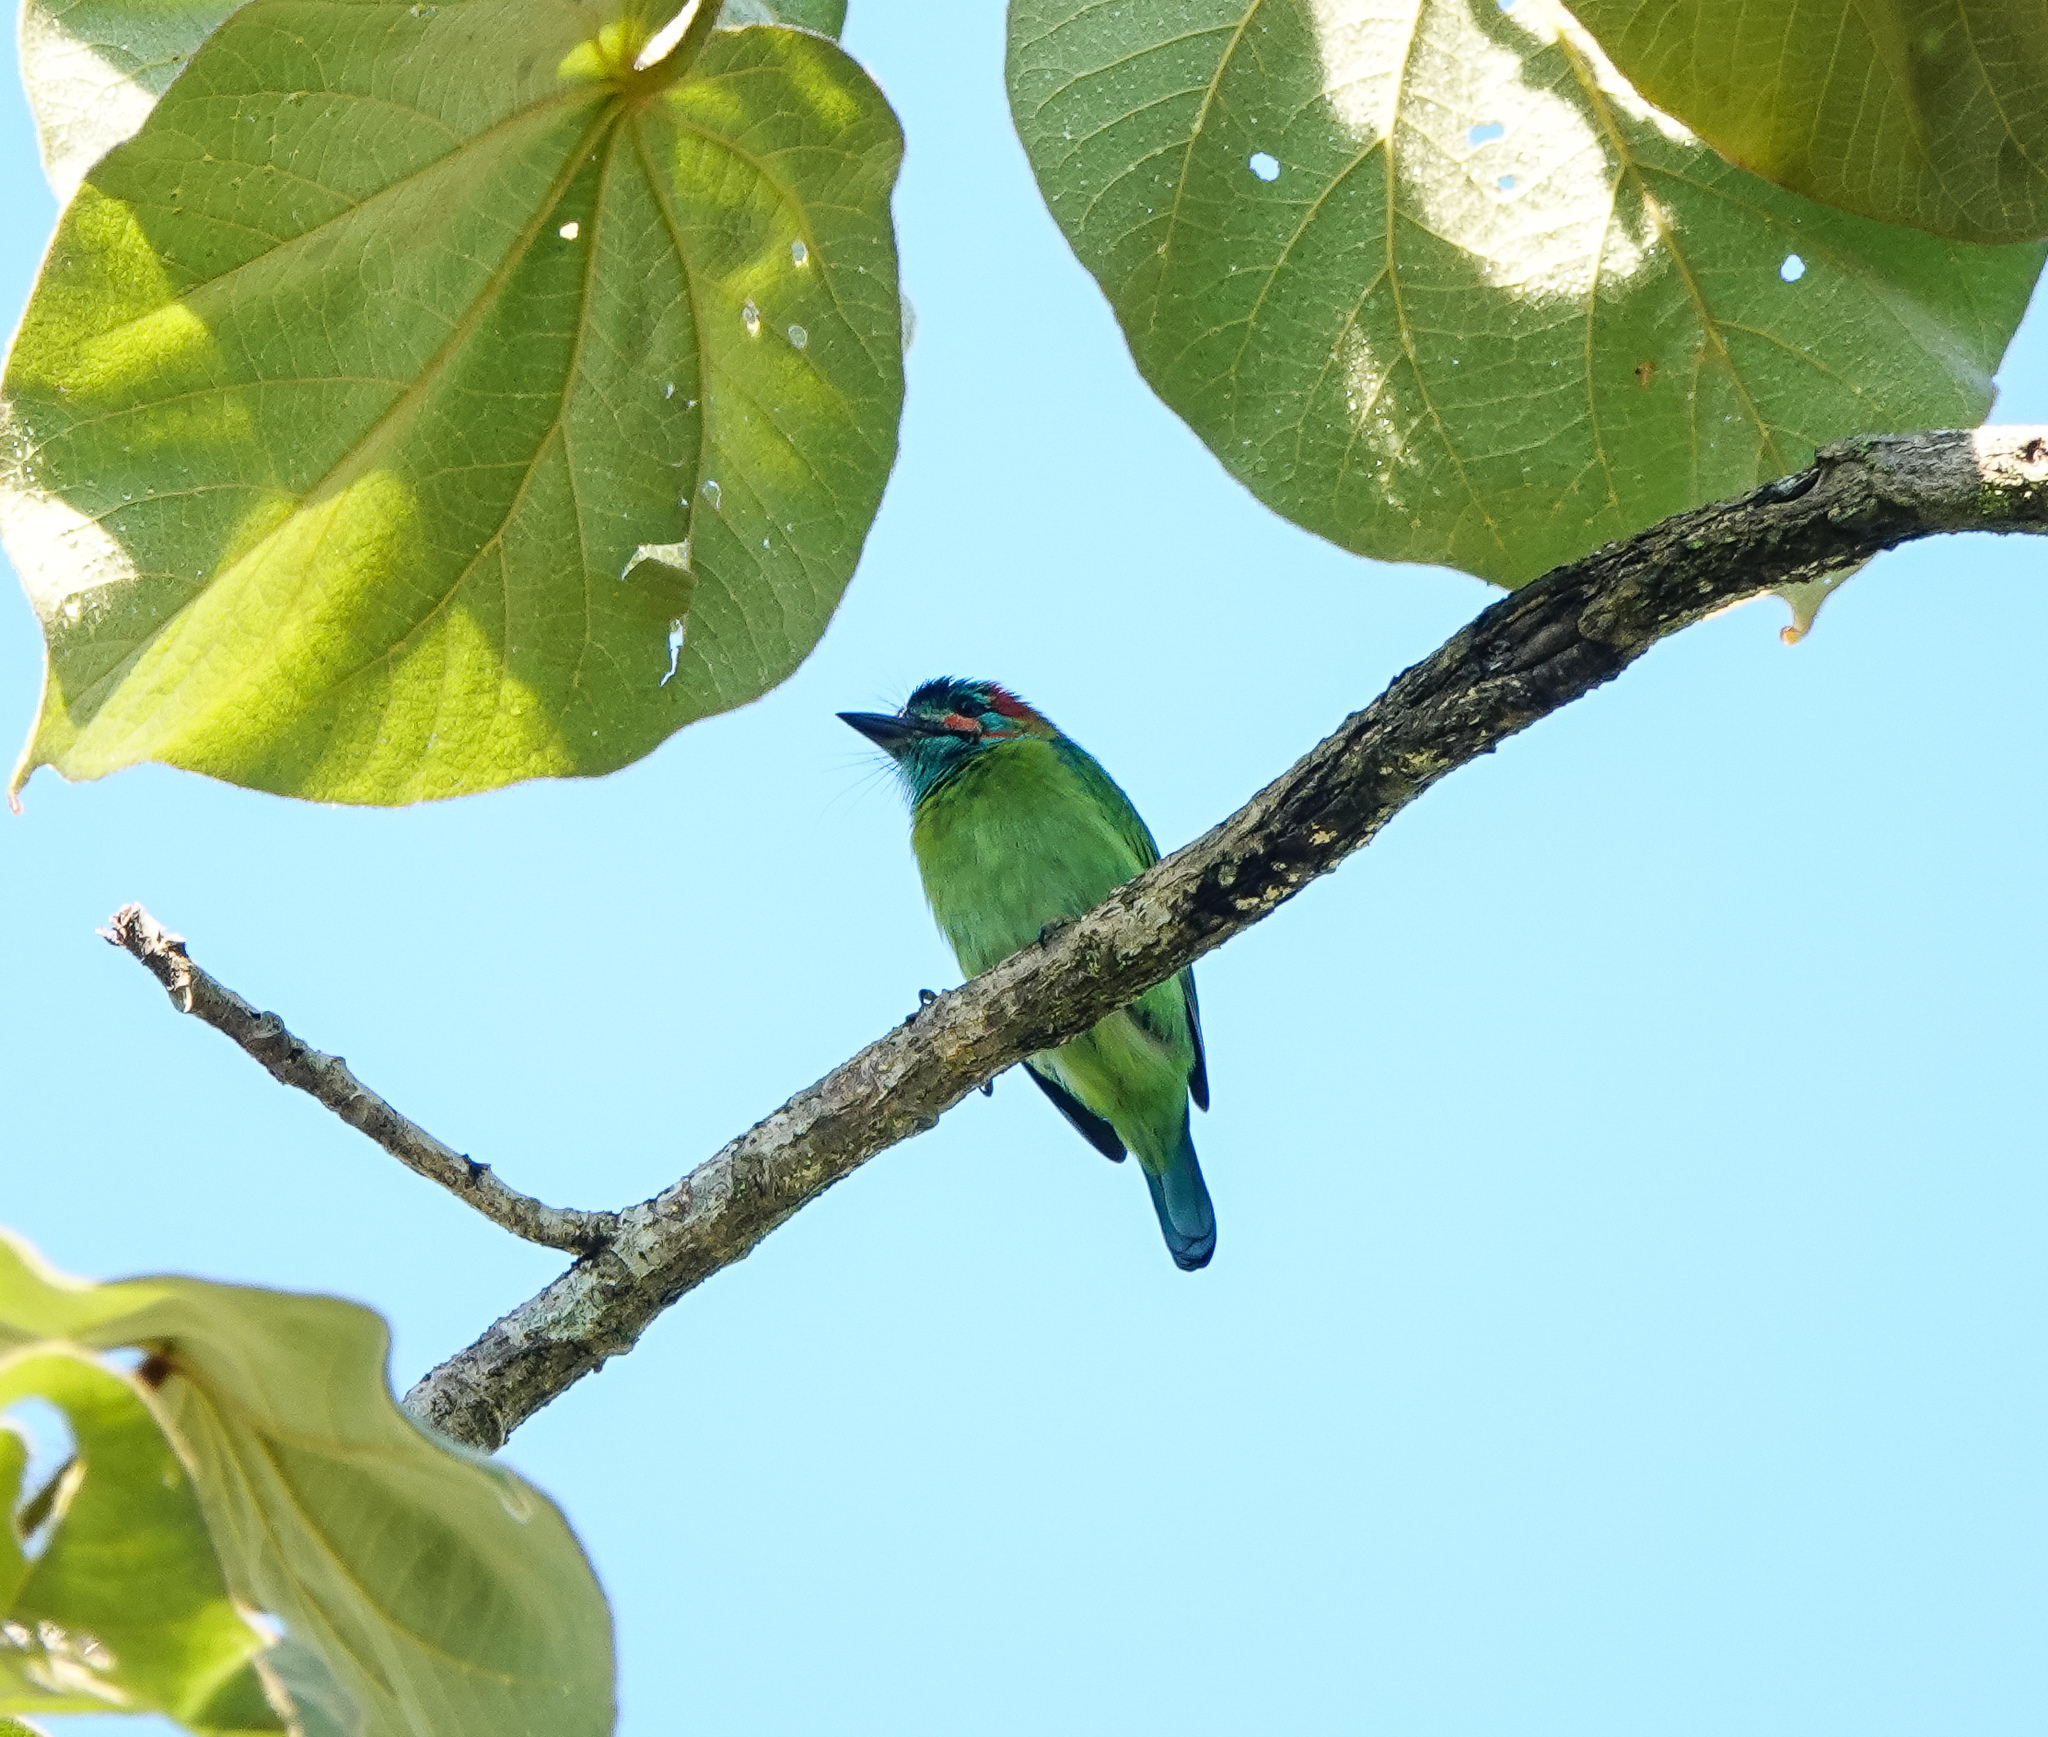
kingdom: Animalia
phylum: Chordata
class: Aves
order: Piciformes
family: Megalaimidae
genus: Psilopogon
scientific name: Psilopogon duvaucelii
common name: Blue-eared barbet
